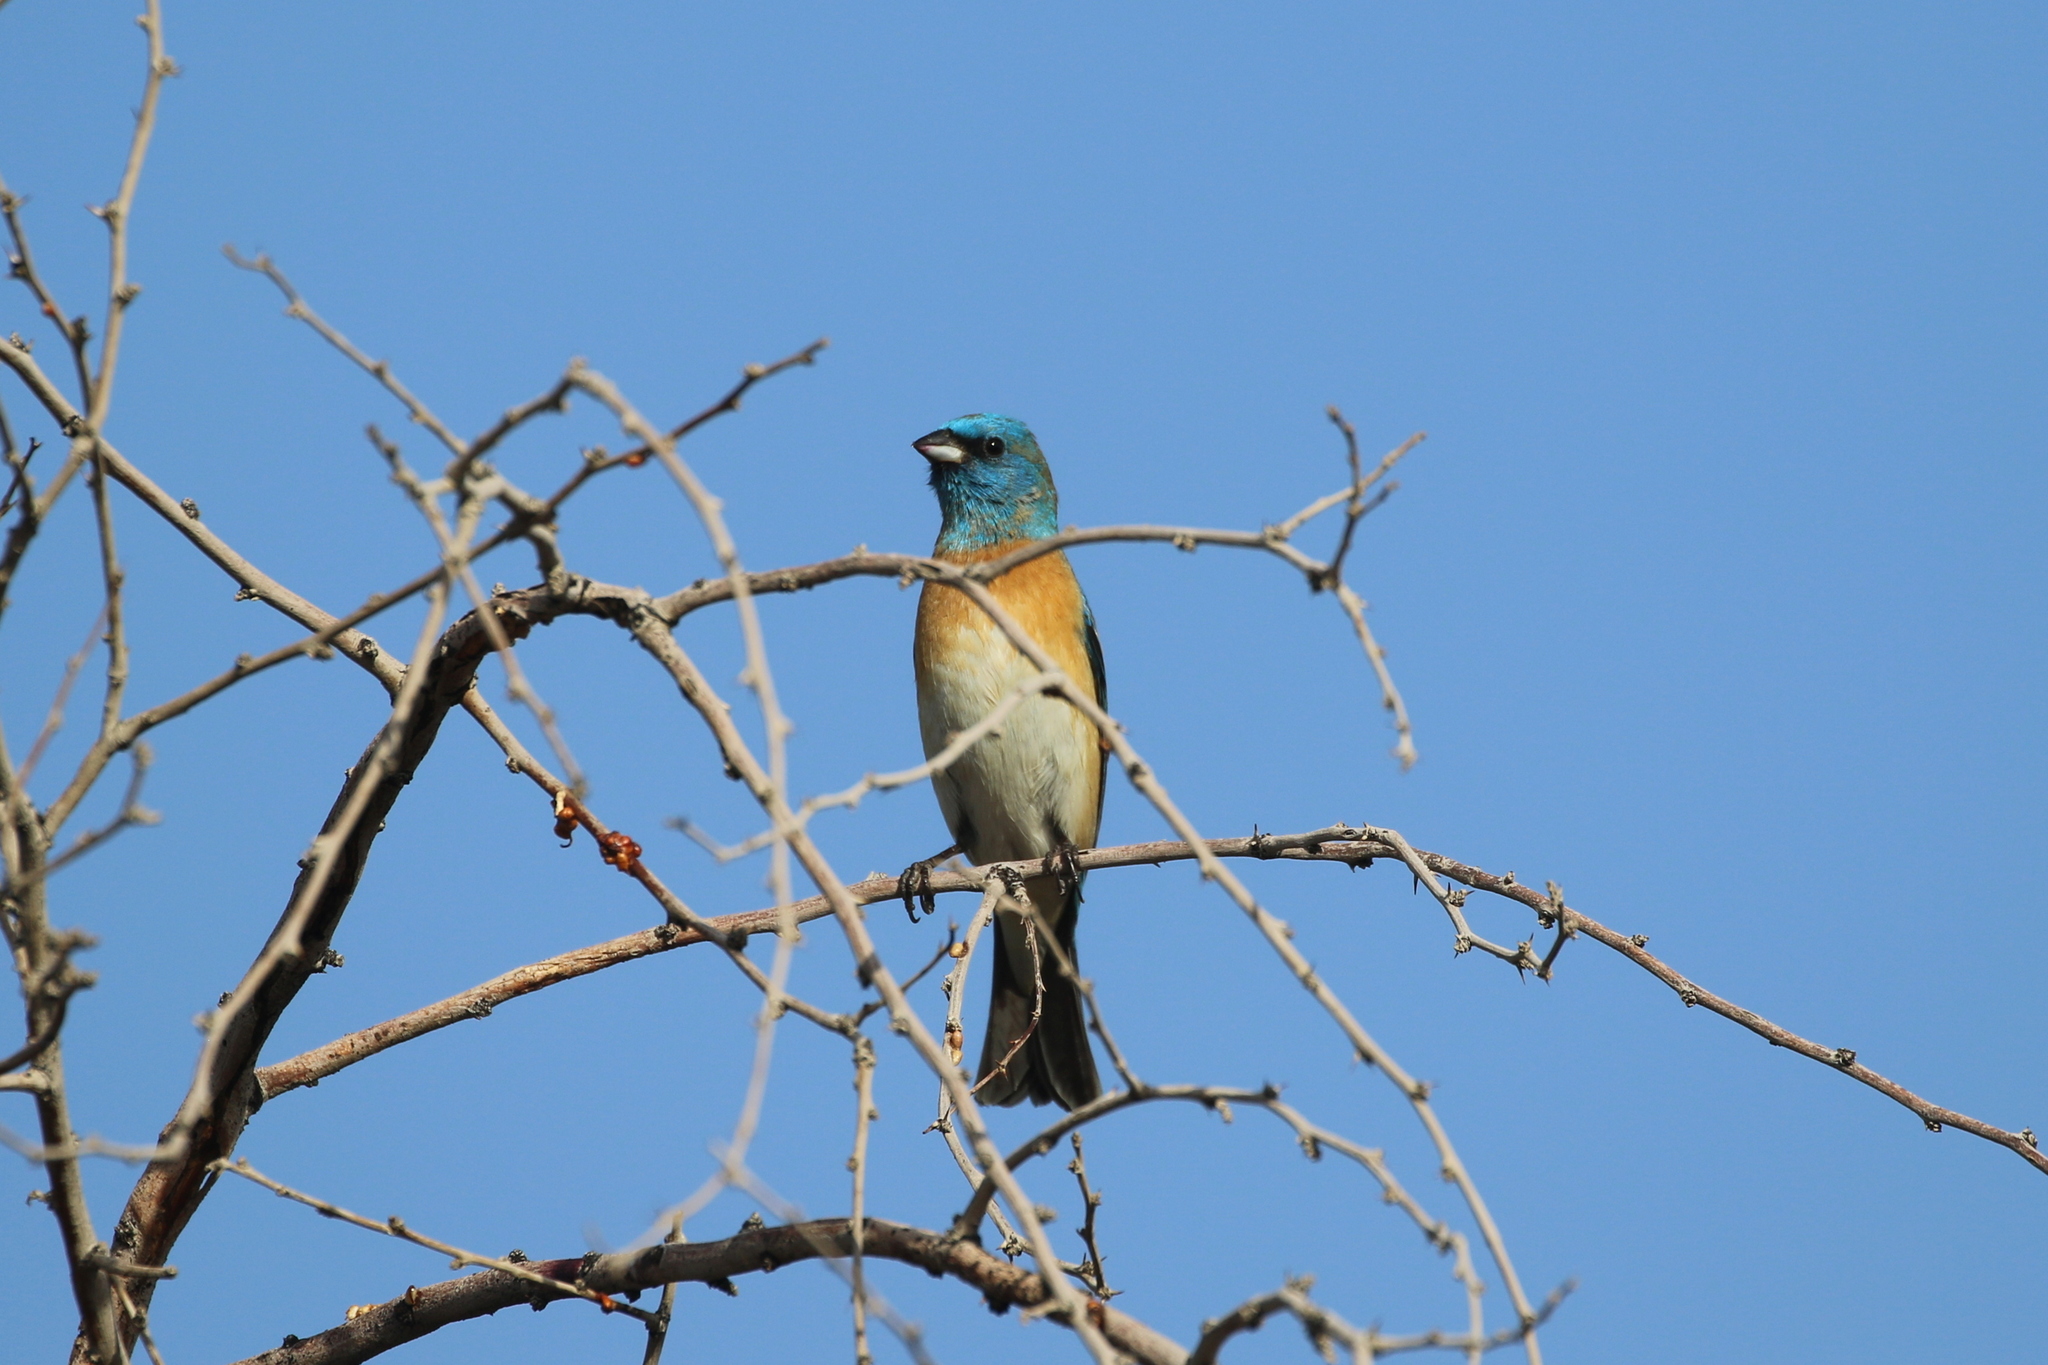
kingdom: Animalia
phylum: Chordata
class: Aves
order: Passeriformes
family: Cardinalidae
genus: Passerina
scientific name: Passerina amoena
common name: Lazuli bunting
